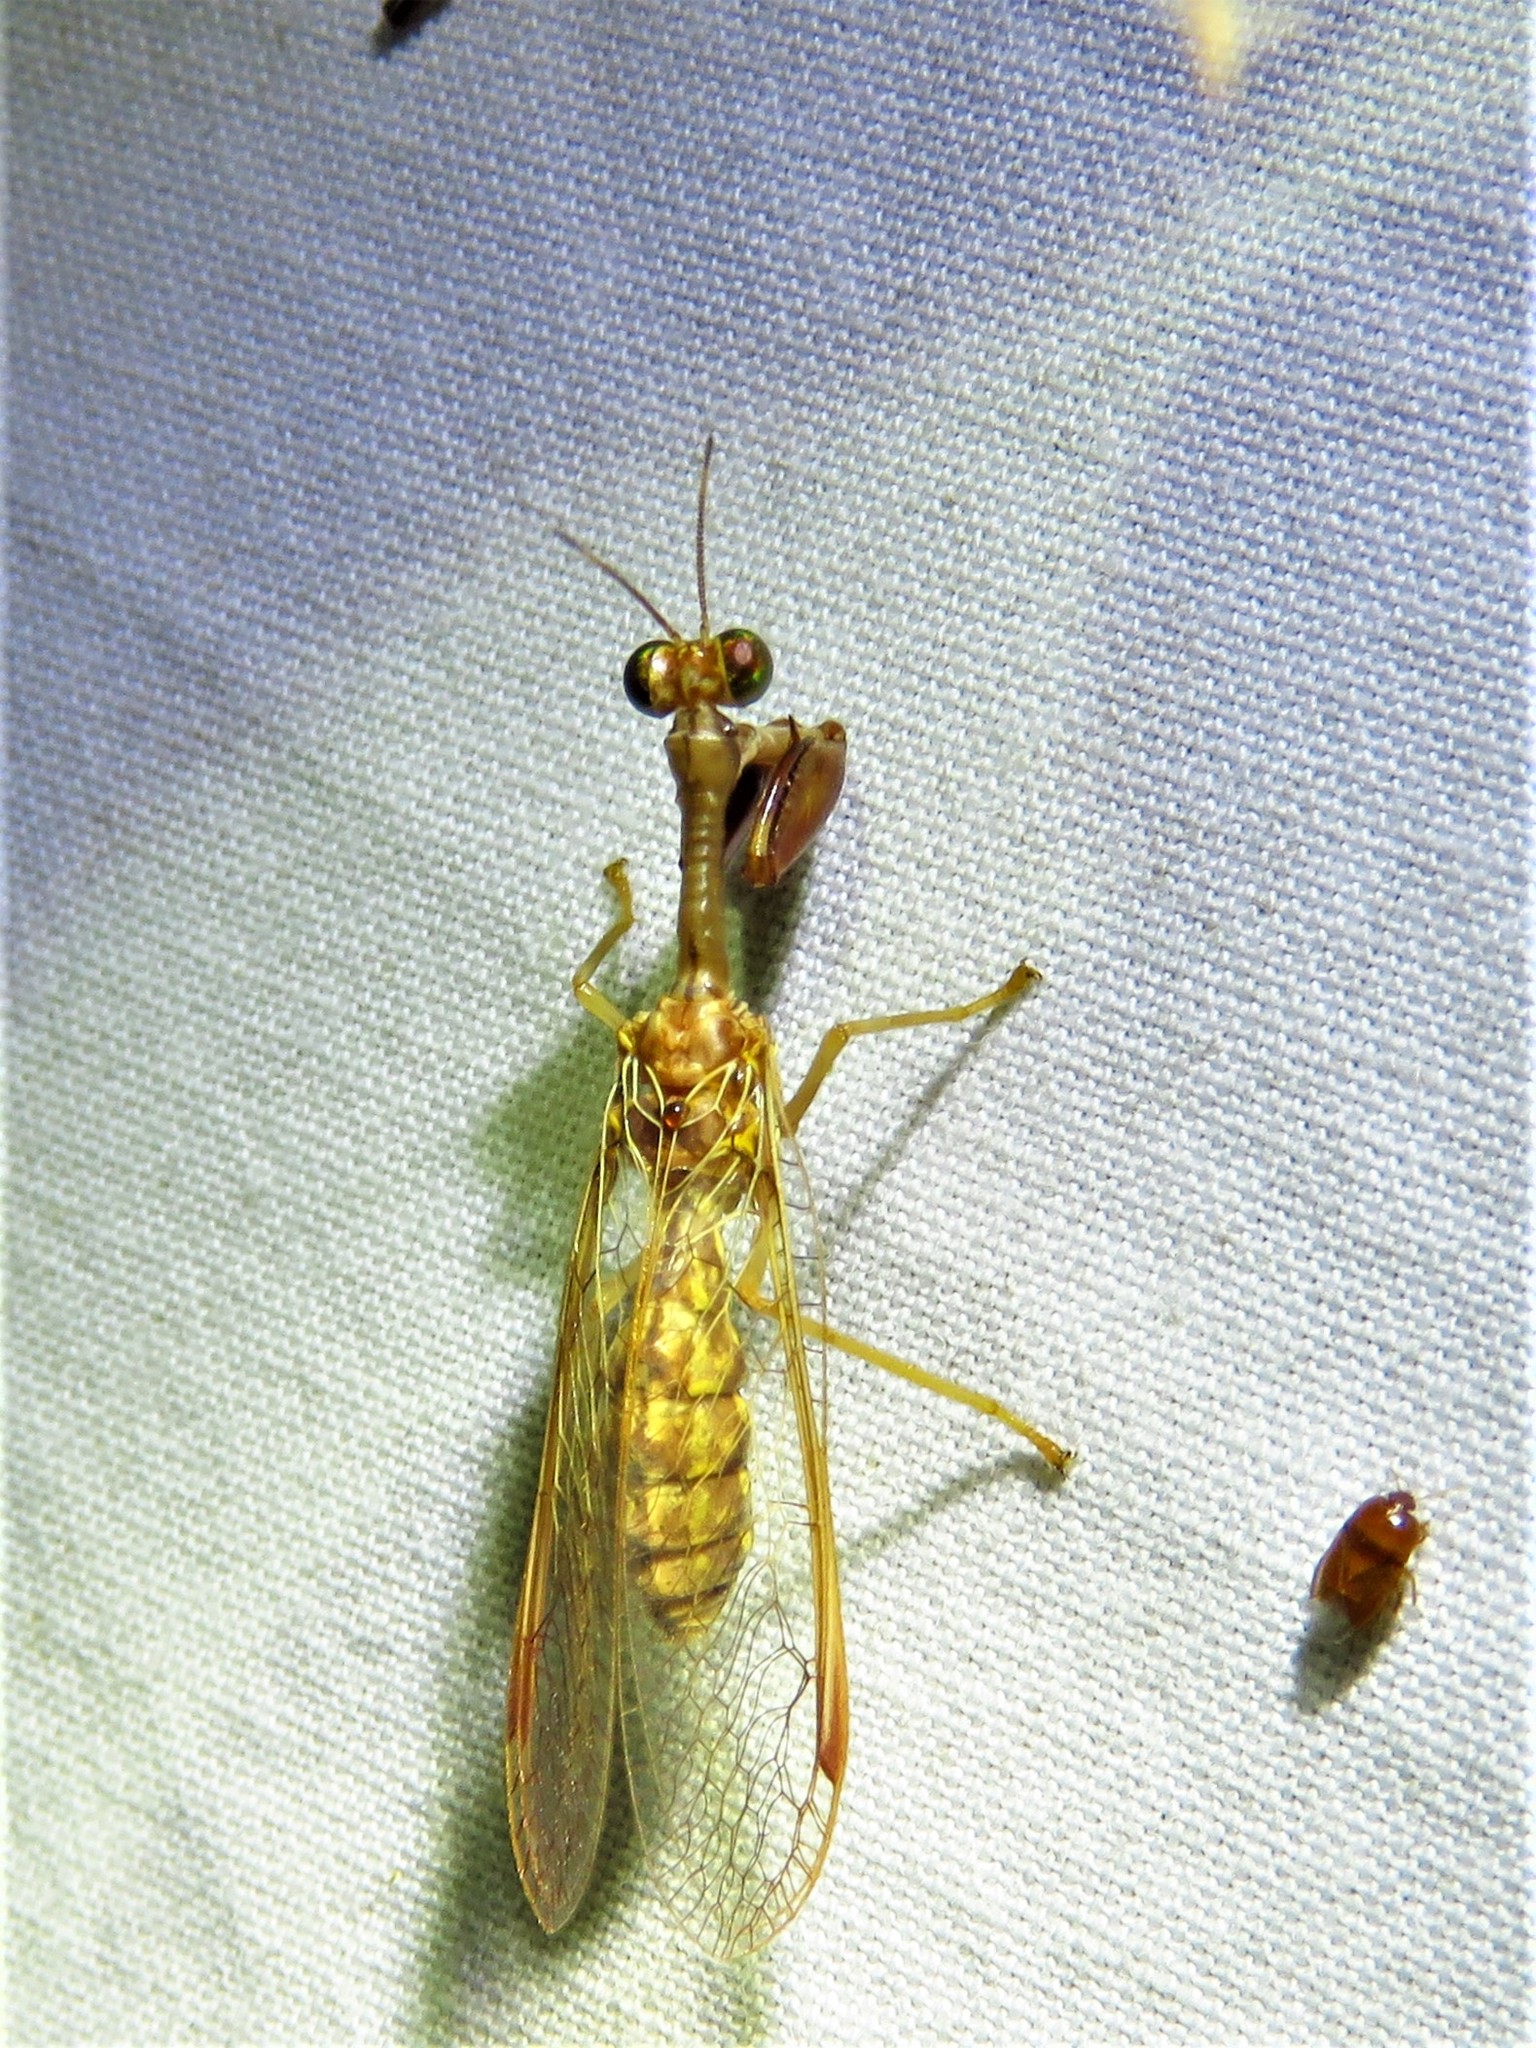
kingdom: Animalia
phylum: Arthropoda
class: Insecta
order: Neuroptera
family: Mantispidae
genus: Dicromantispa
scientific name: Dicromantispa sayi
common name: Say's mantidfly
